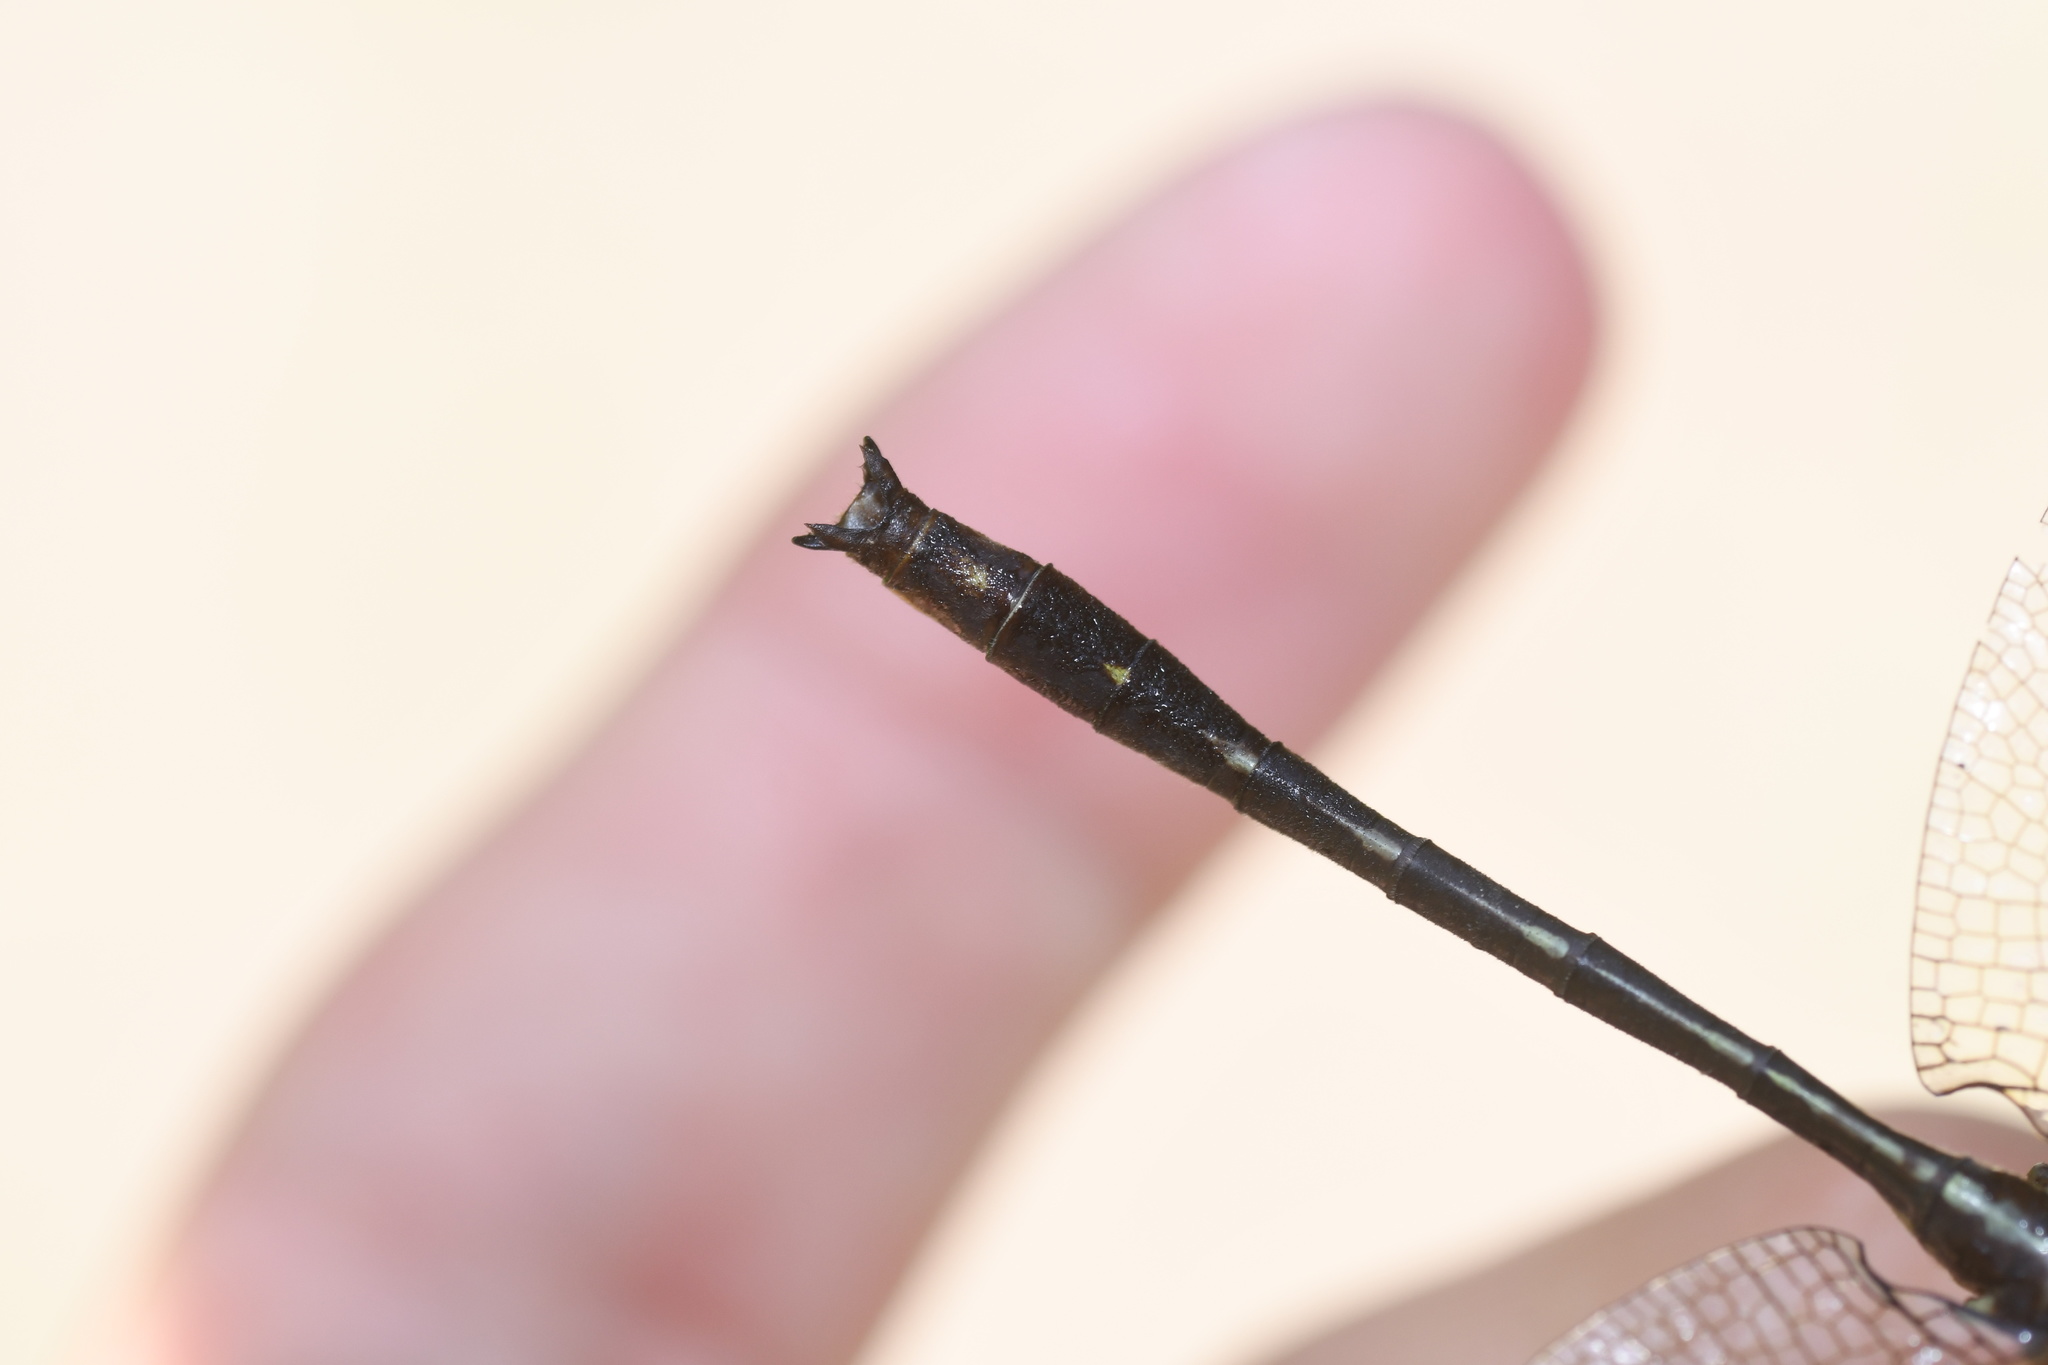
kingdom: Animalia
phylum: Arthropoda
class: Insecta
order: Odonata
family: Gomphidae
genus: Phanogomphus
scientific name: Phanogomphus lividus
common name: Ashy clubtail
